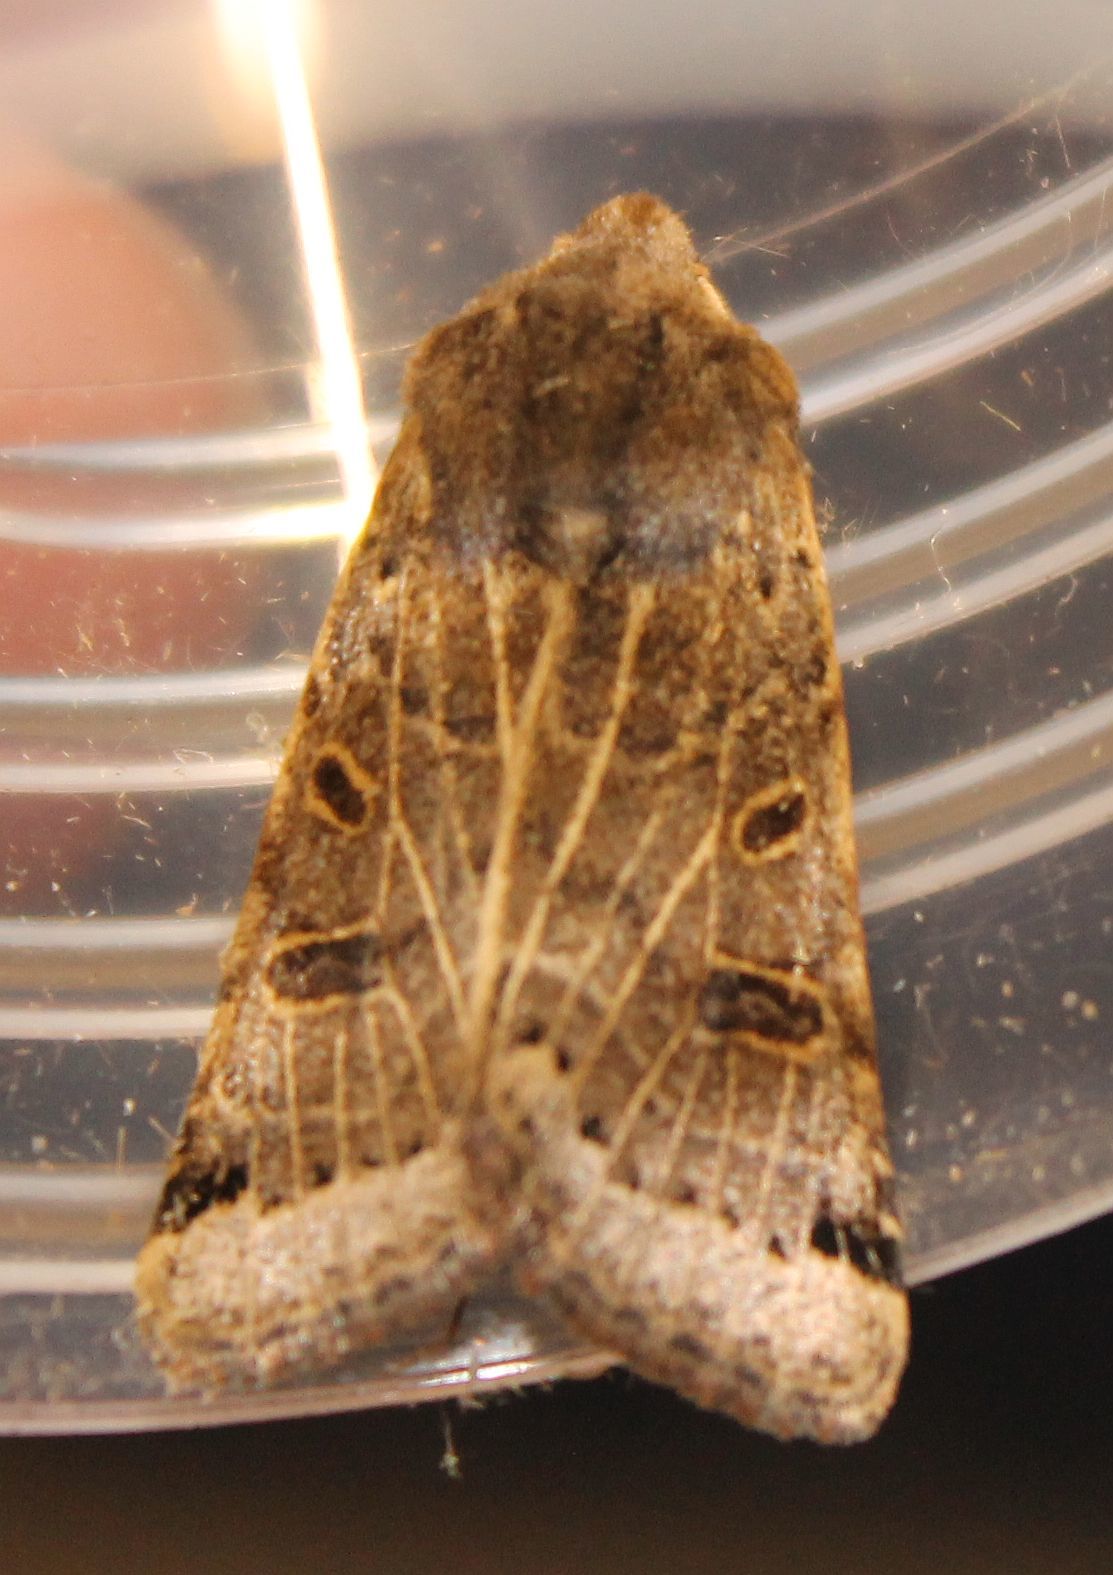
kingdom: Animalia
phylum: Arthropoda
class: Insecta
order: Lepidoptera
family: Noctuidae
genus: Agrochola
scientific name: Agrochola lunosa
